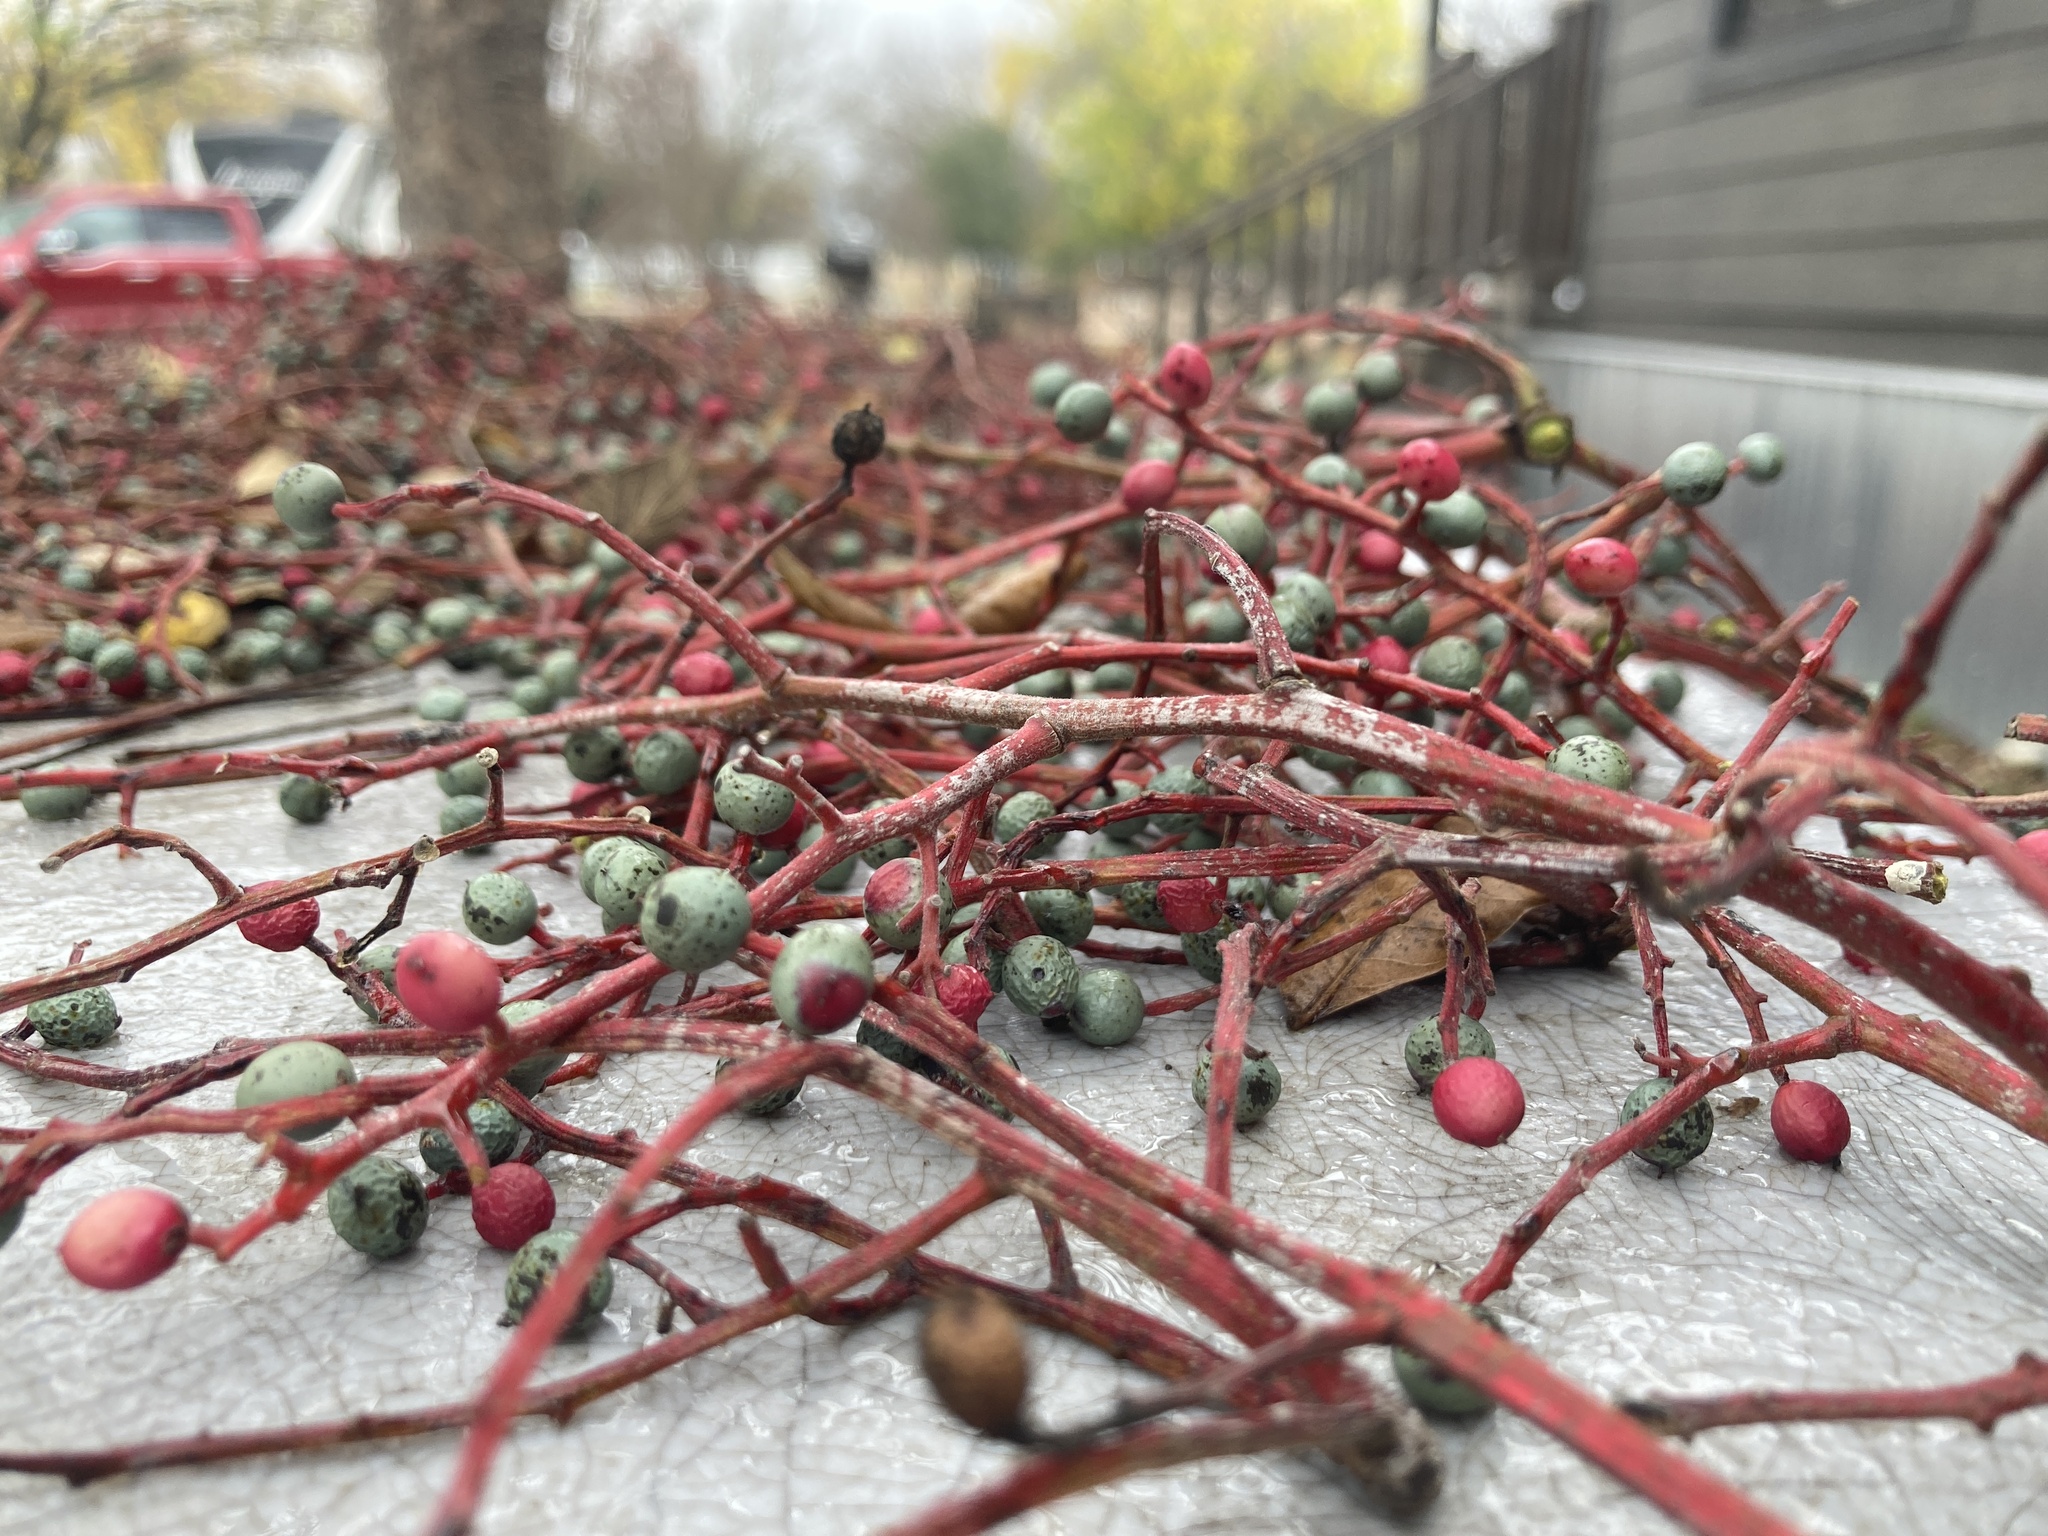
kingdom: Plantae
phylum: Tracheophyta
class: Magnoliopsida
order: Sapindales
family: Anacardiaceae
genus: Pistacia
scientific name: Pistacia chinensis
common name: Chinese pistache
